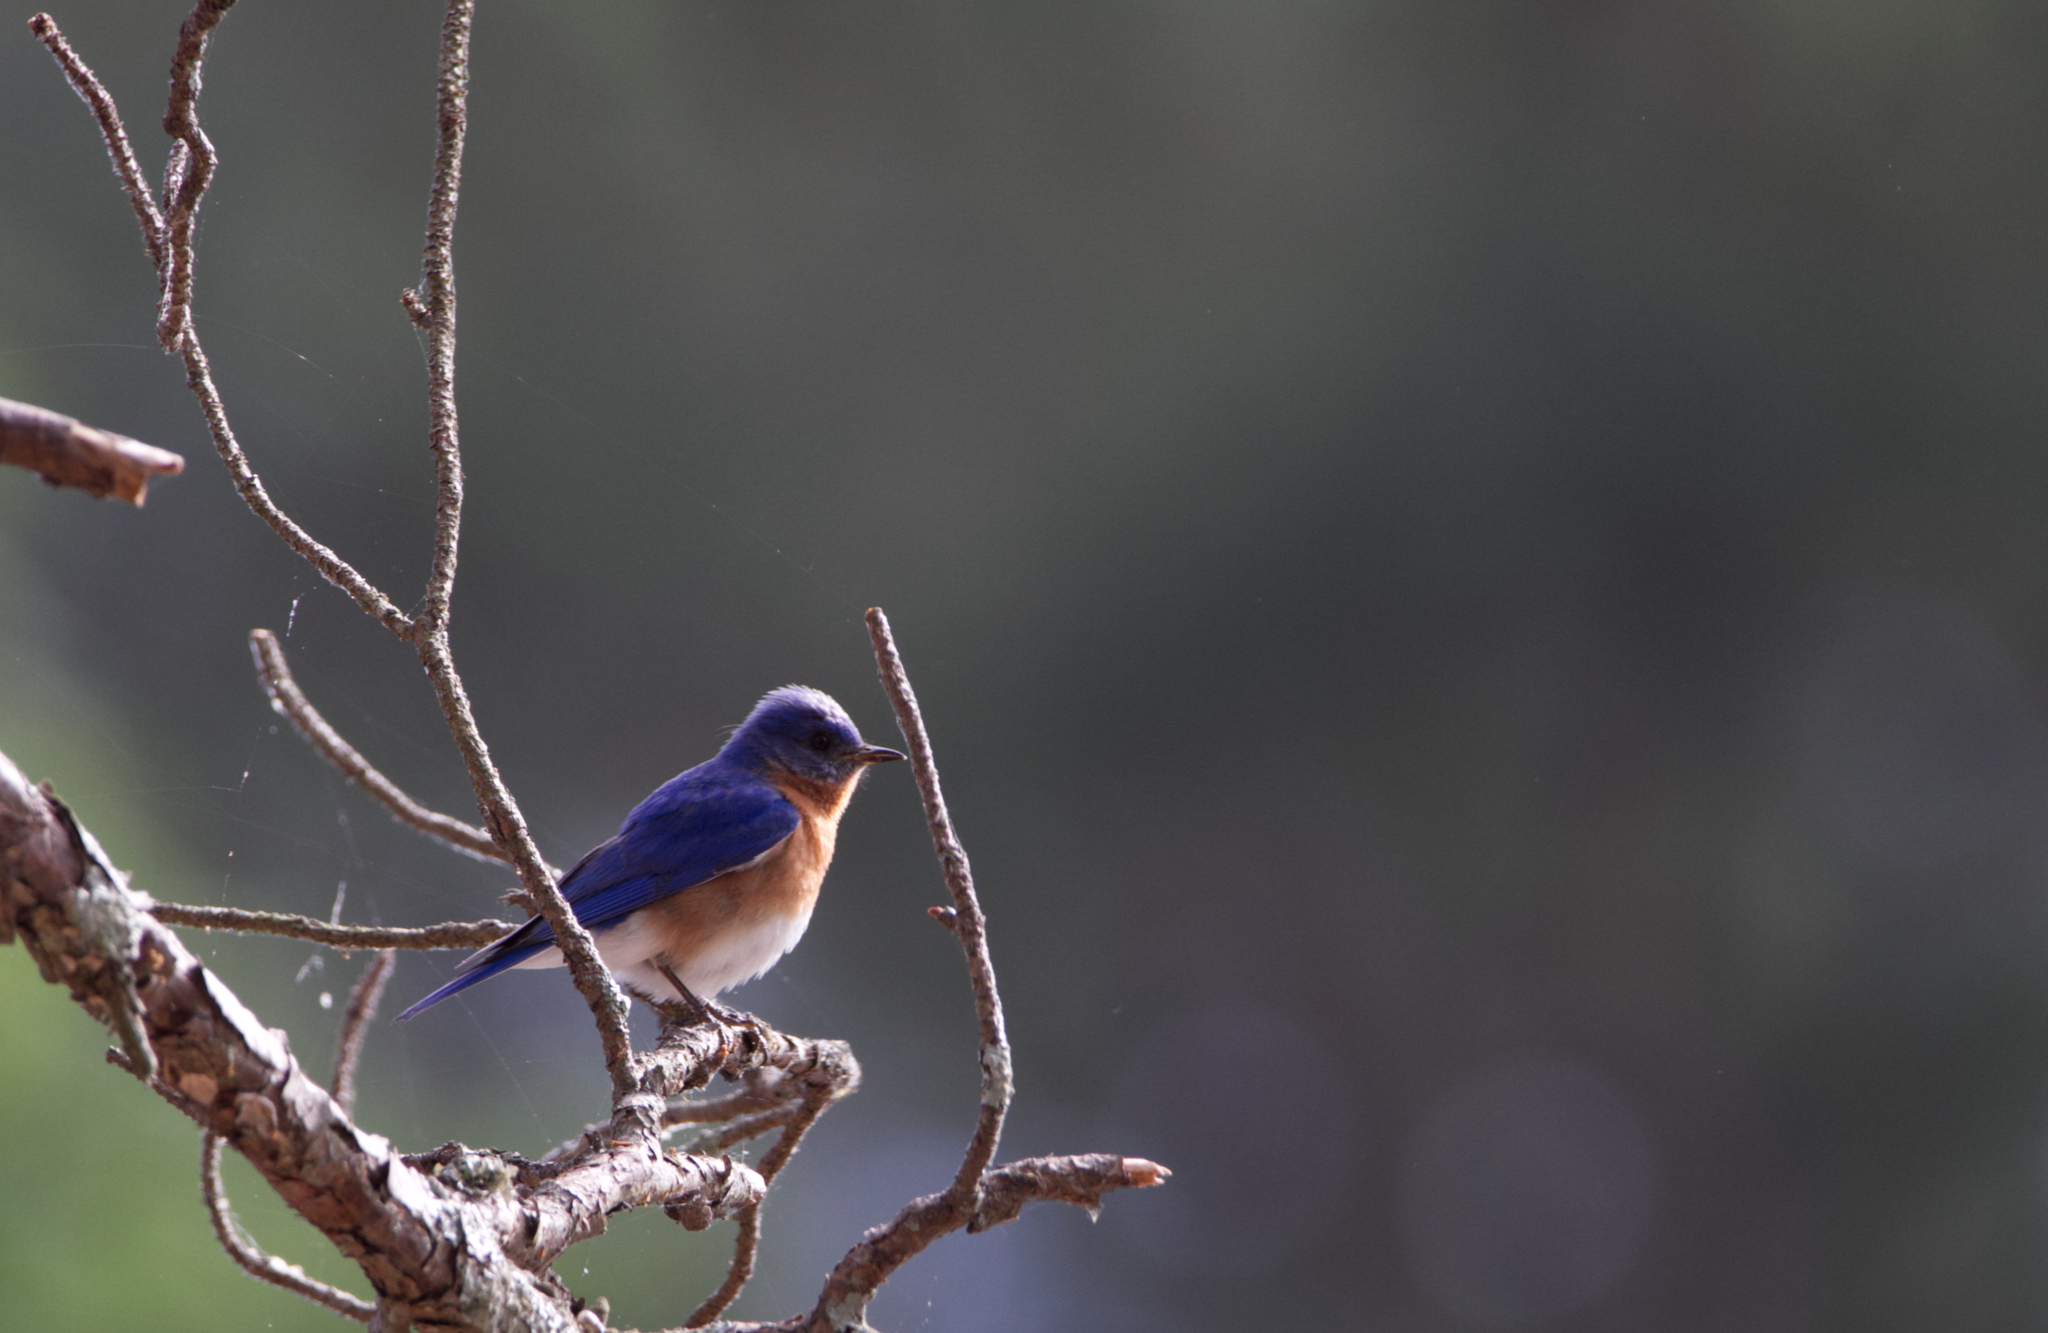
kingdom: Animalia
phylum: Chordata
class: Aves
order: Passeriformes
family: Turdidae
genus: Sialia
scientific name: Sialia sialis
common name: Eastern bluebird
